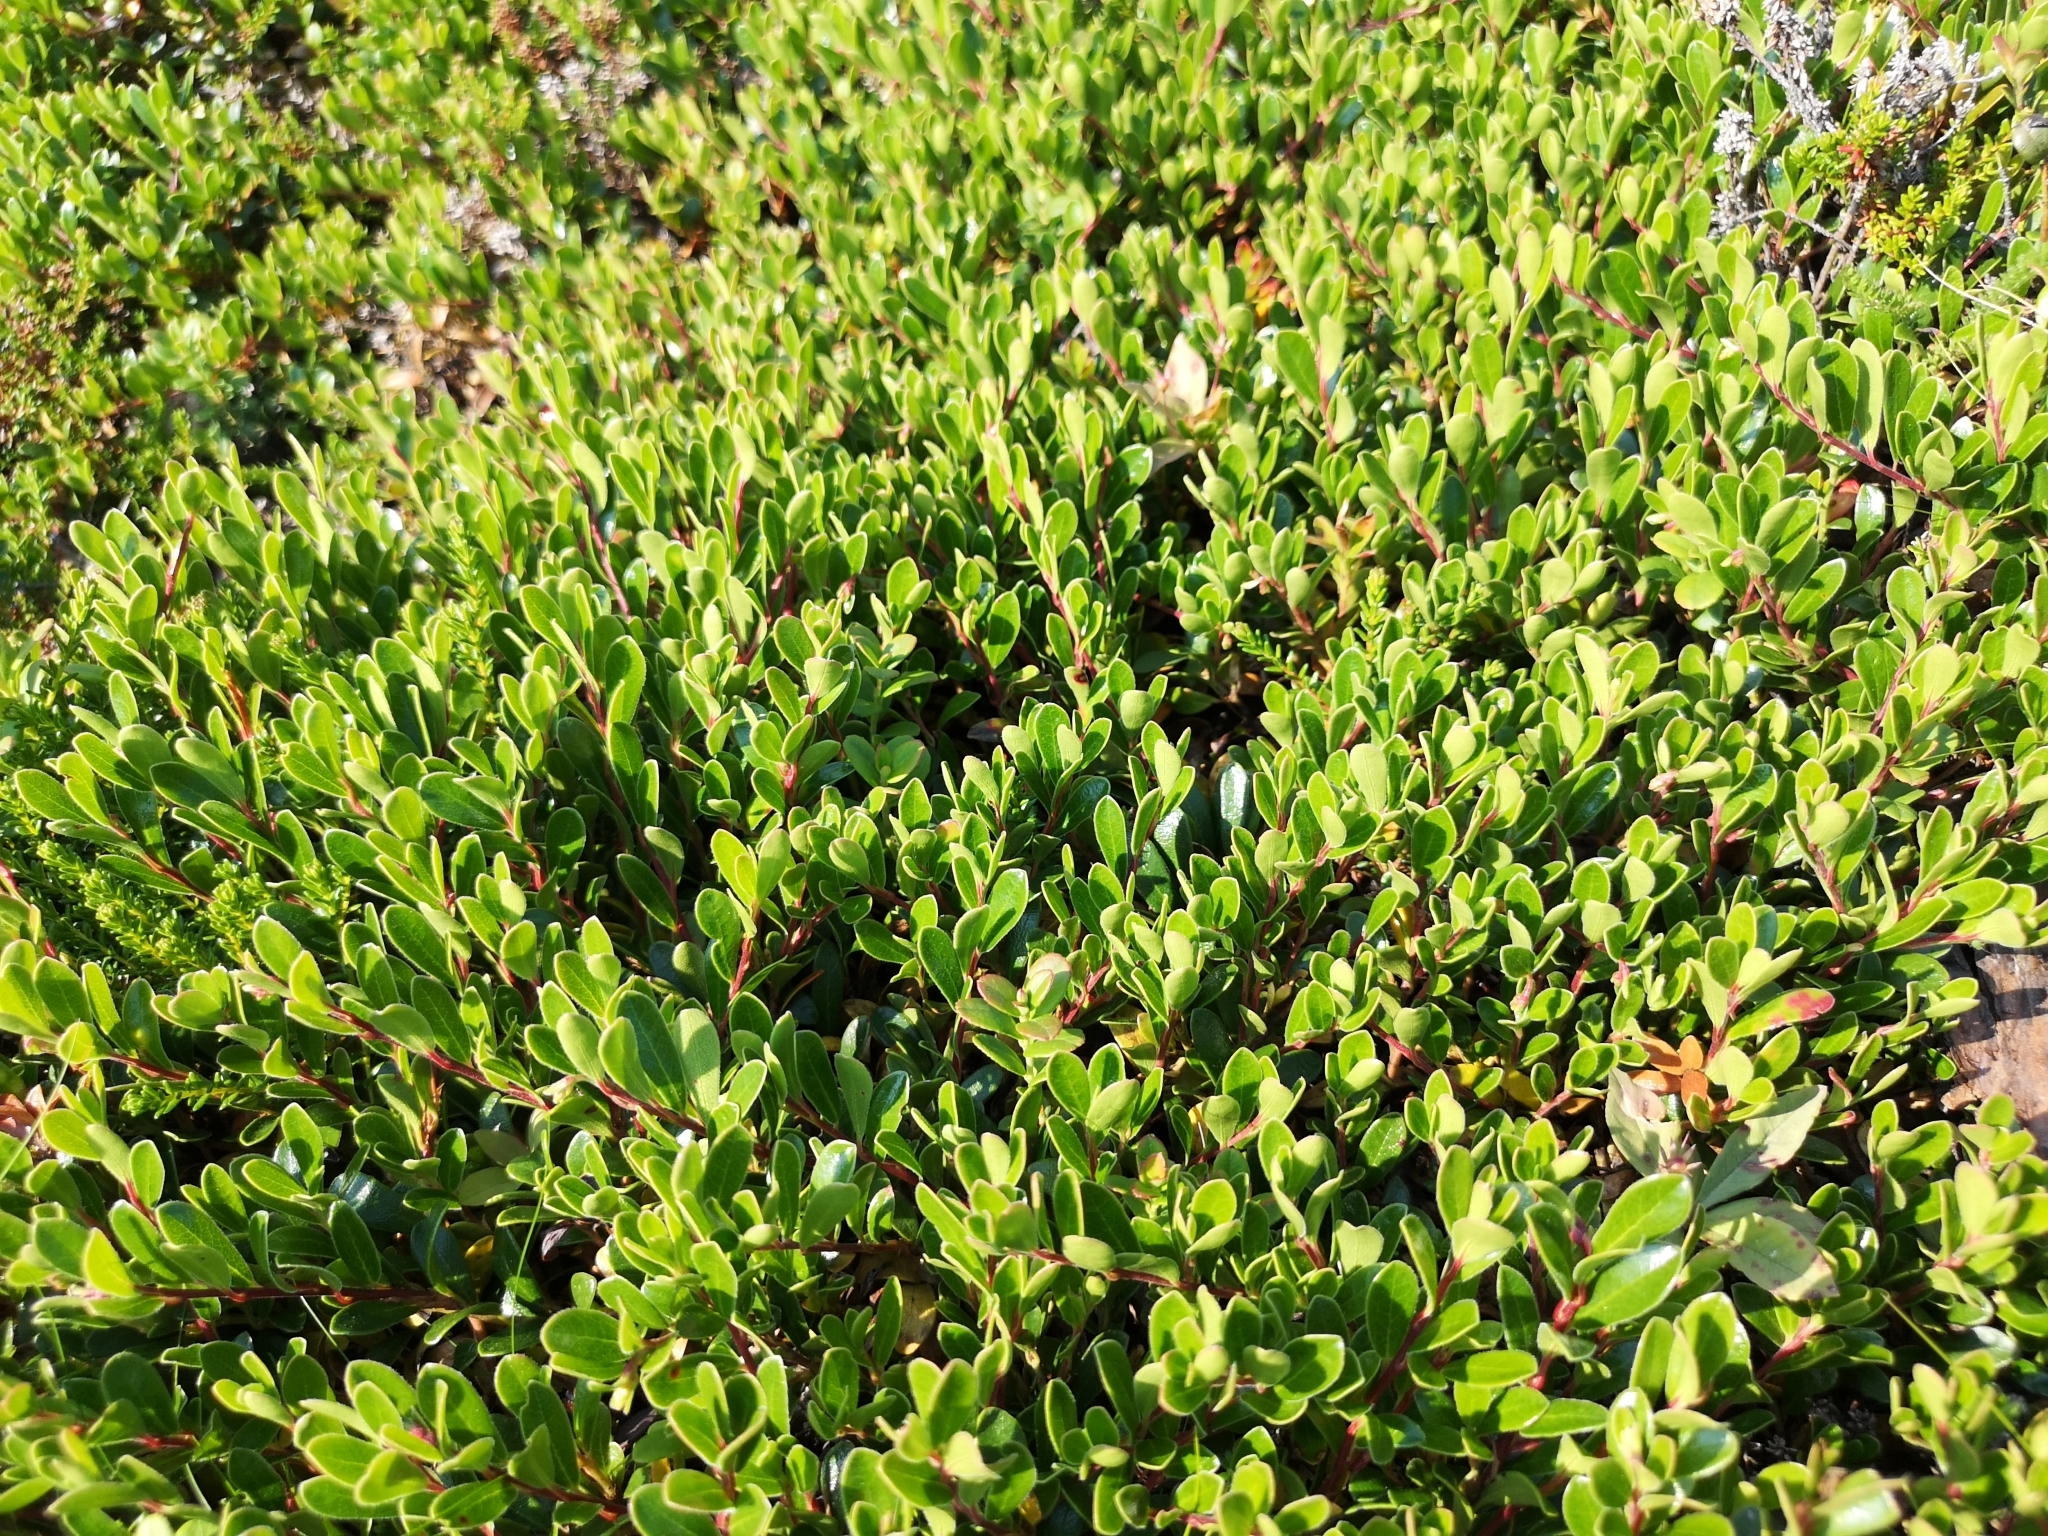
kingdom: Plantae
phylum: Tracheophyta
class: Magnoliopsida
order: Ericales
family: Ericaceae
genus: Arctostaphylos
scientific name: Arctostaphylos uva-ursi
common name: Bearberry
